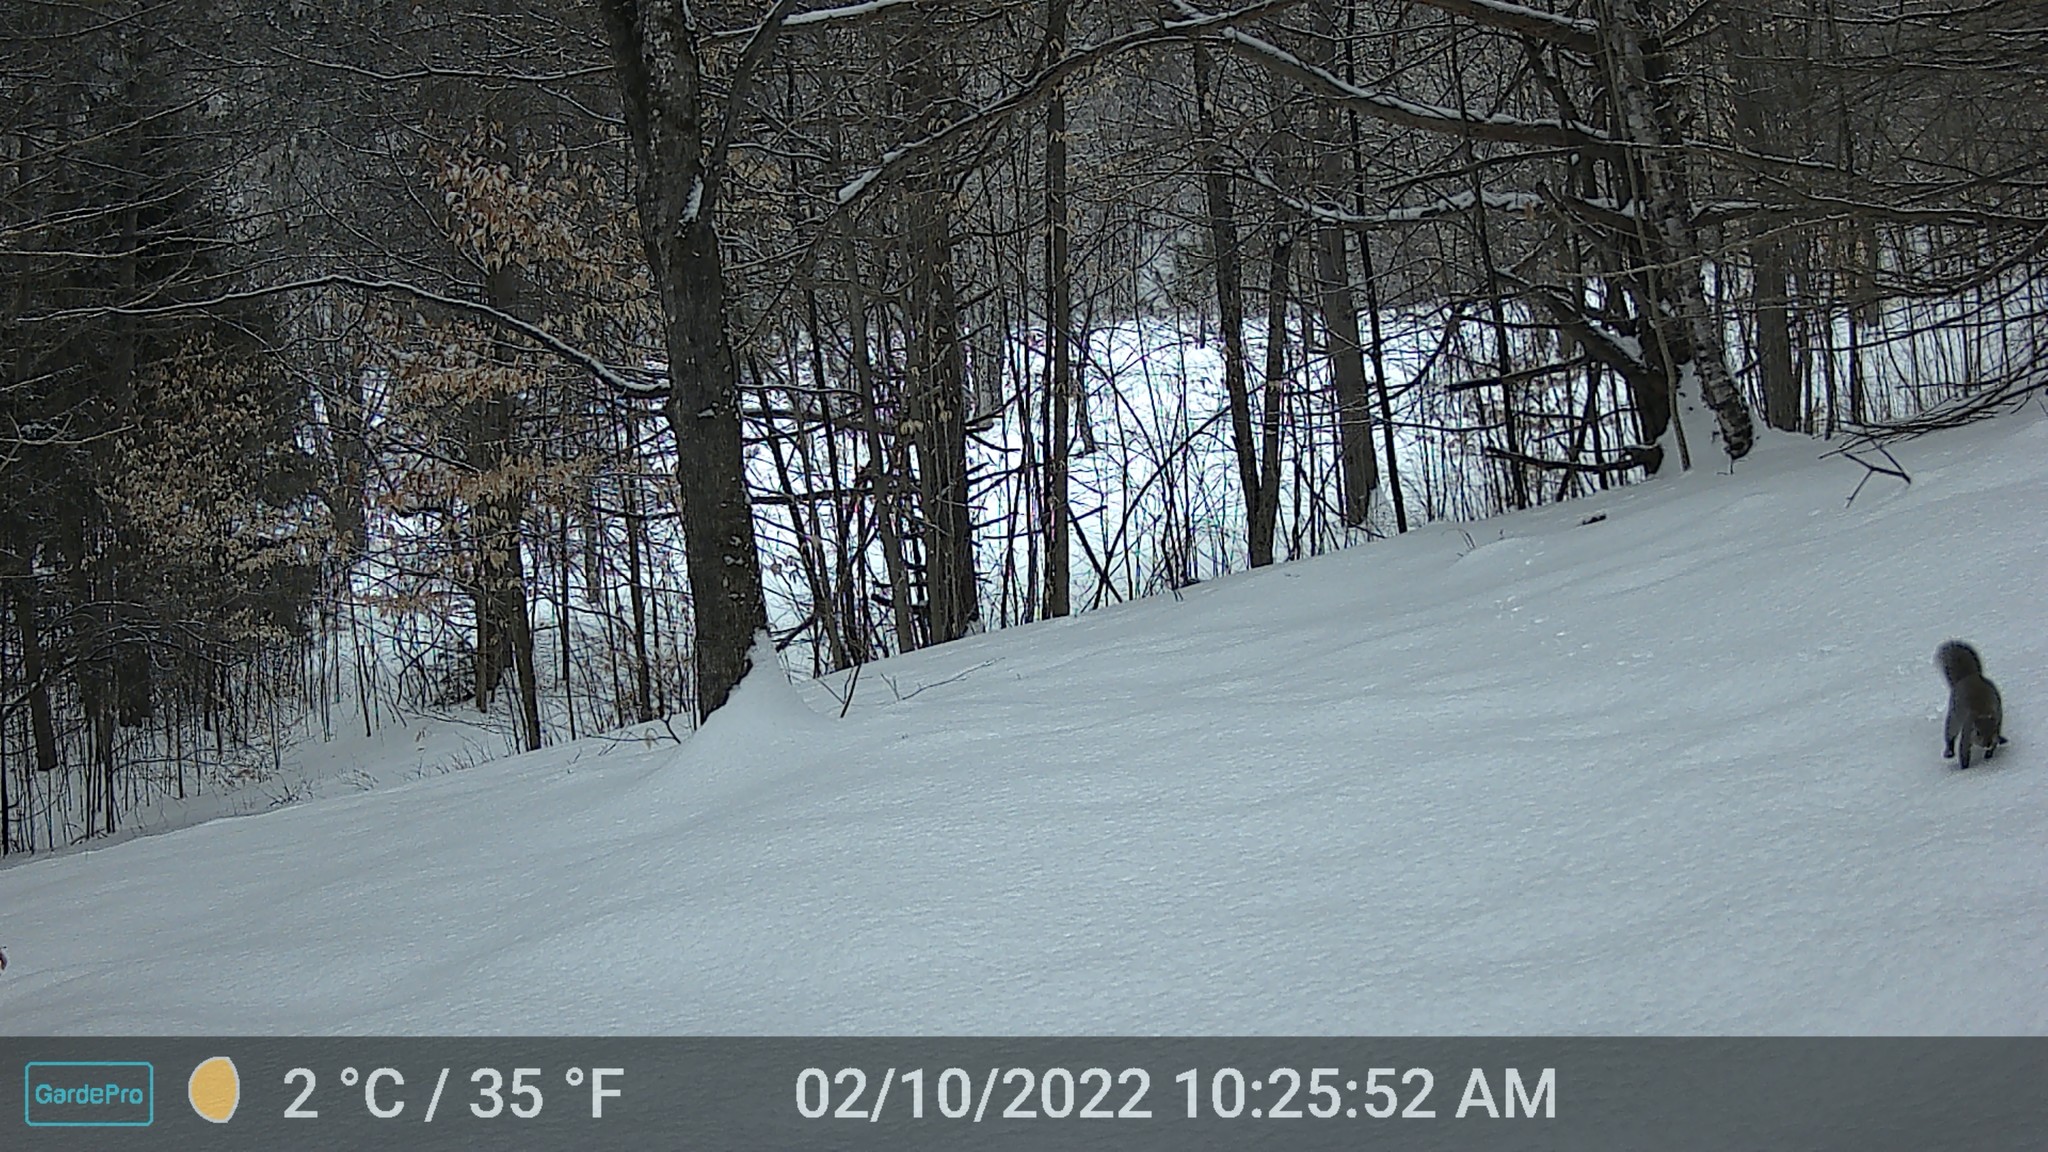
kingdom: Animalia
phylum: Chordata
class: Mammalia
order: Rodentia
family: Sciuridae
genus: Sciurus
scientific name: Sciurus carolinensis
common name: Eastern gray squirrel
